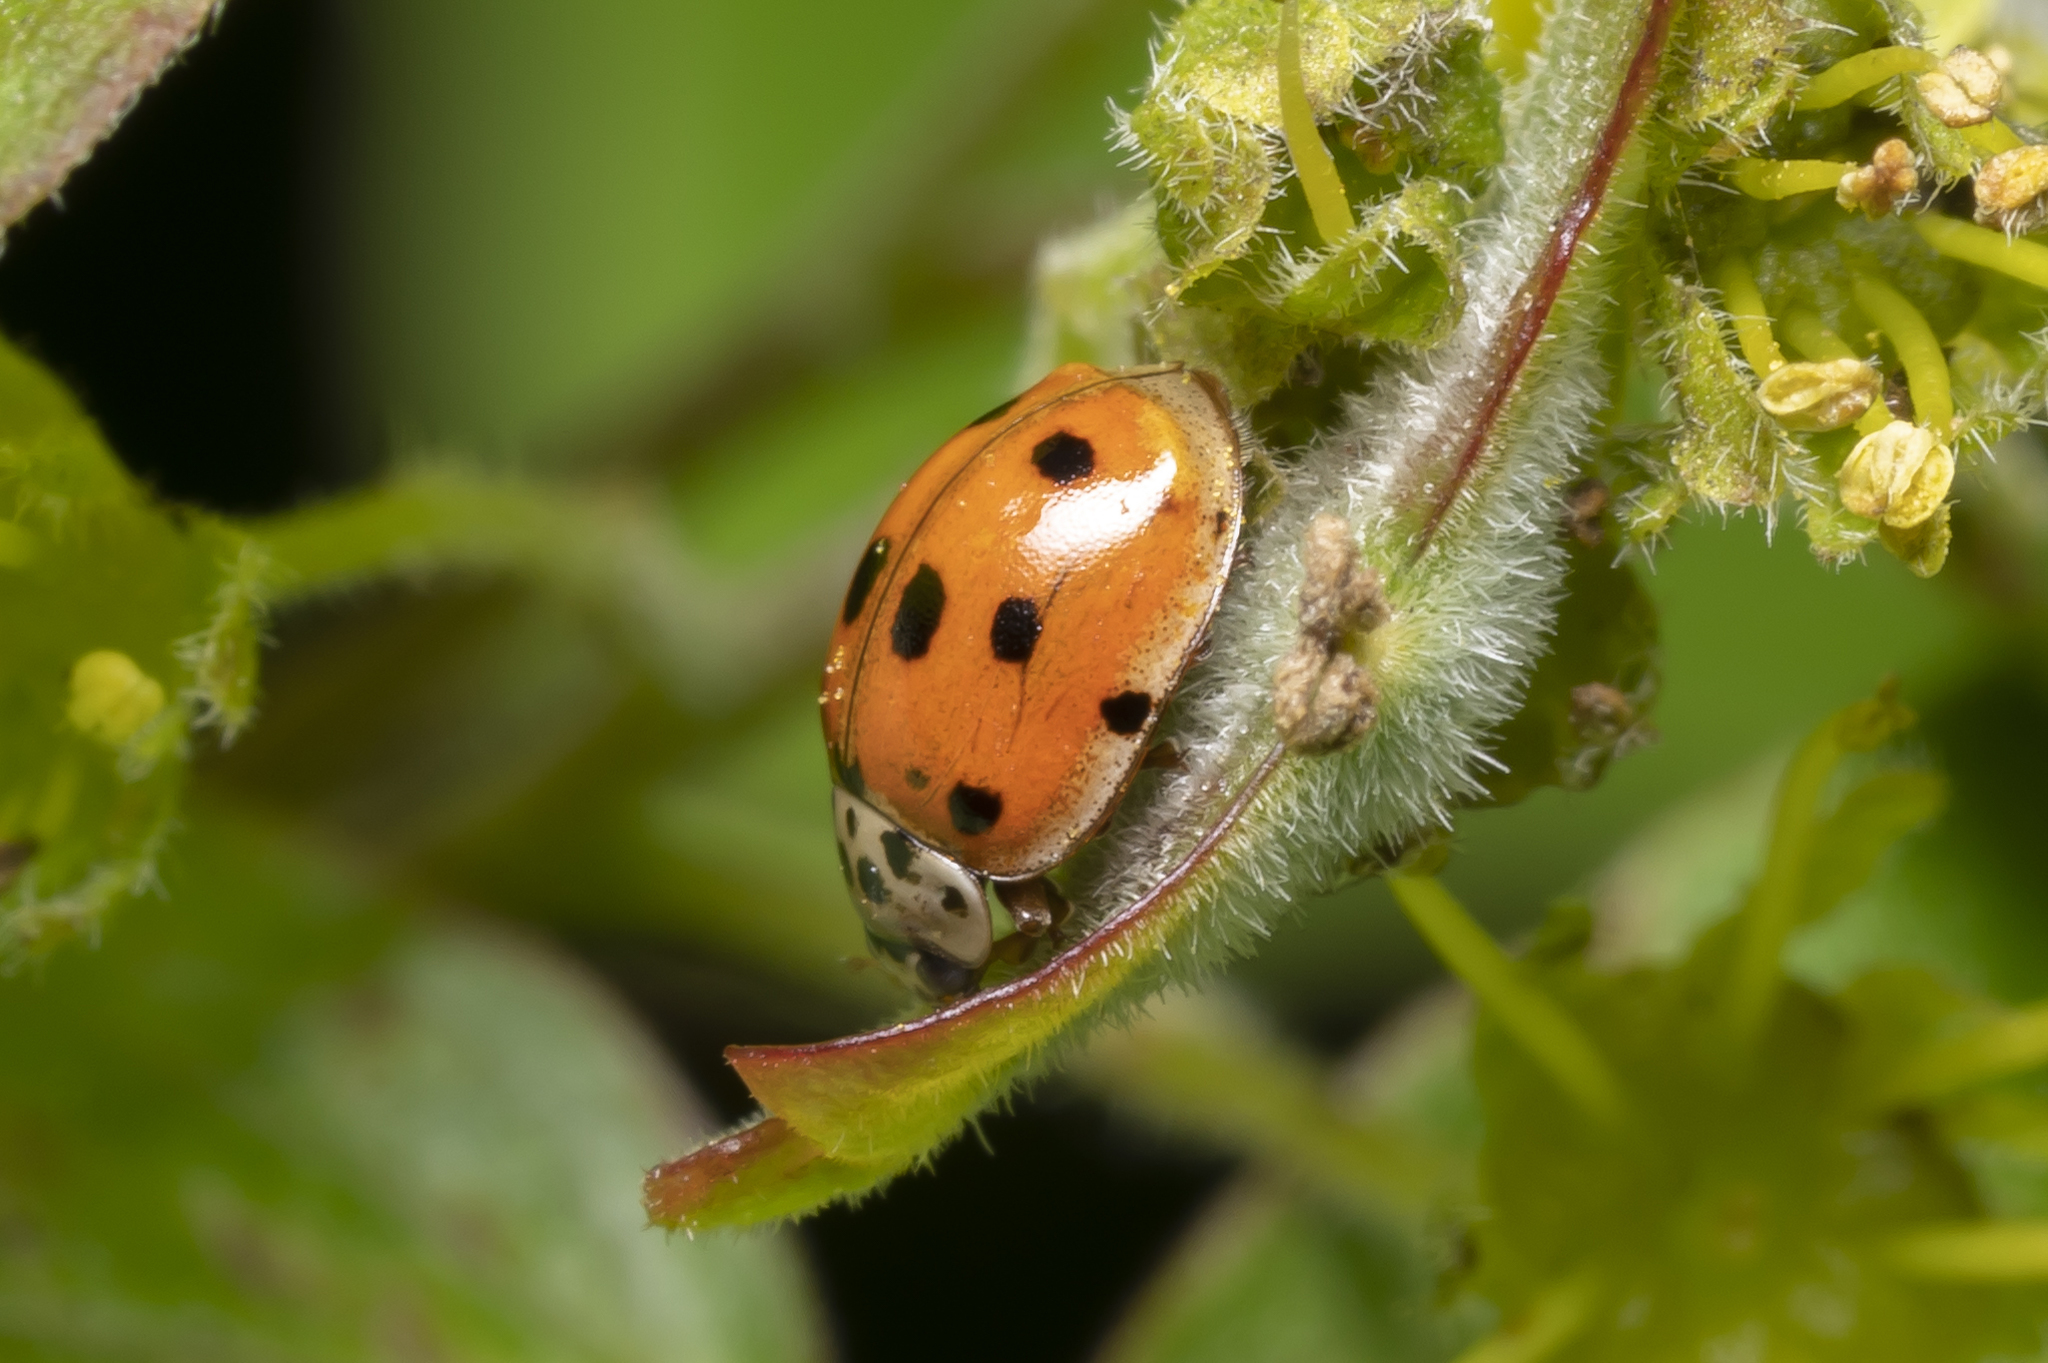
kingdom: Animalia
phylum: Arthropoda
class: Insecta
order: Coleoptera
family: Coccinellidae
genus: Adalia
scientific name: Adalia decempunctata
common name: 10-spot ladybird
